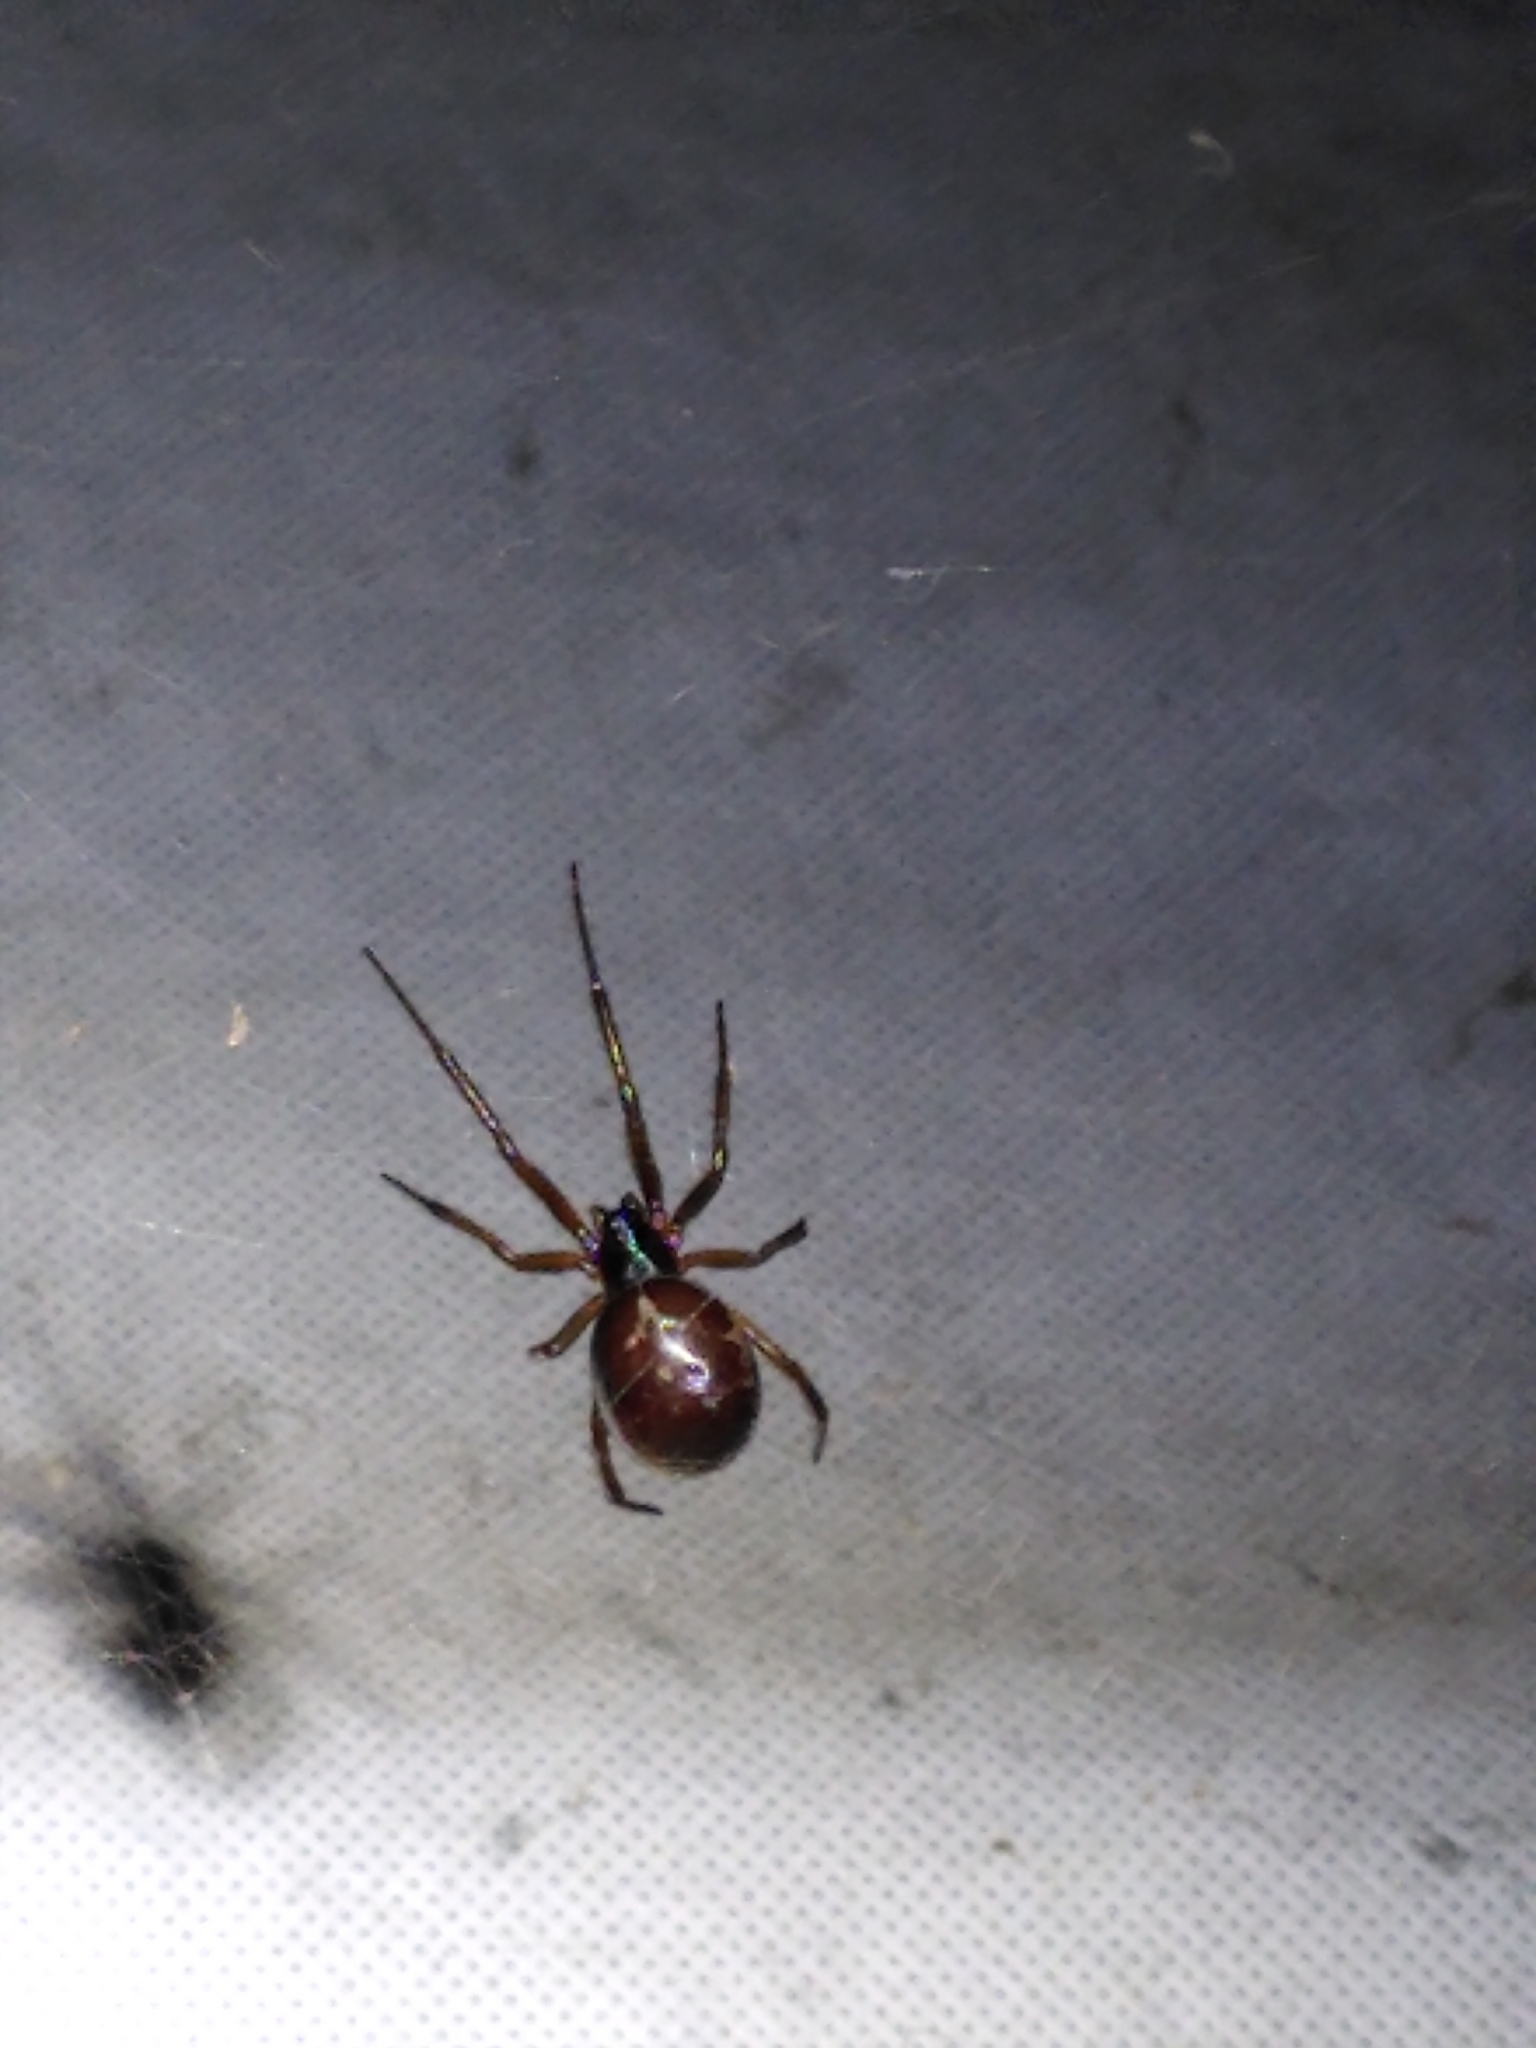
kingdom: Animalia
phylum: Arthropoda
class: Arachnida
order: Araneae
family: Theridiidae
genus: Steatoda
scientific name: Steatoda nobilis
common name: Cobweb weaver
